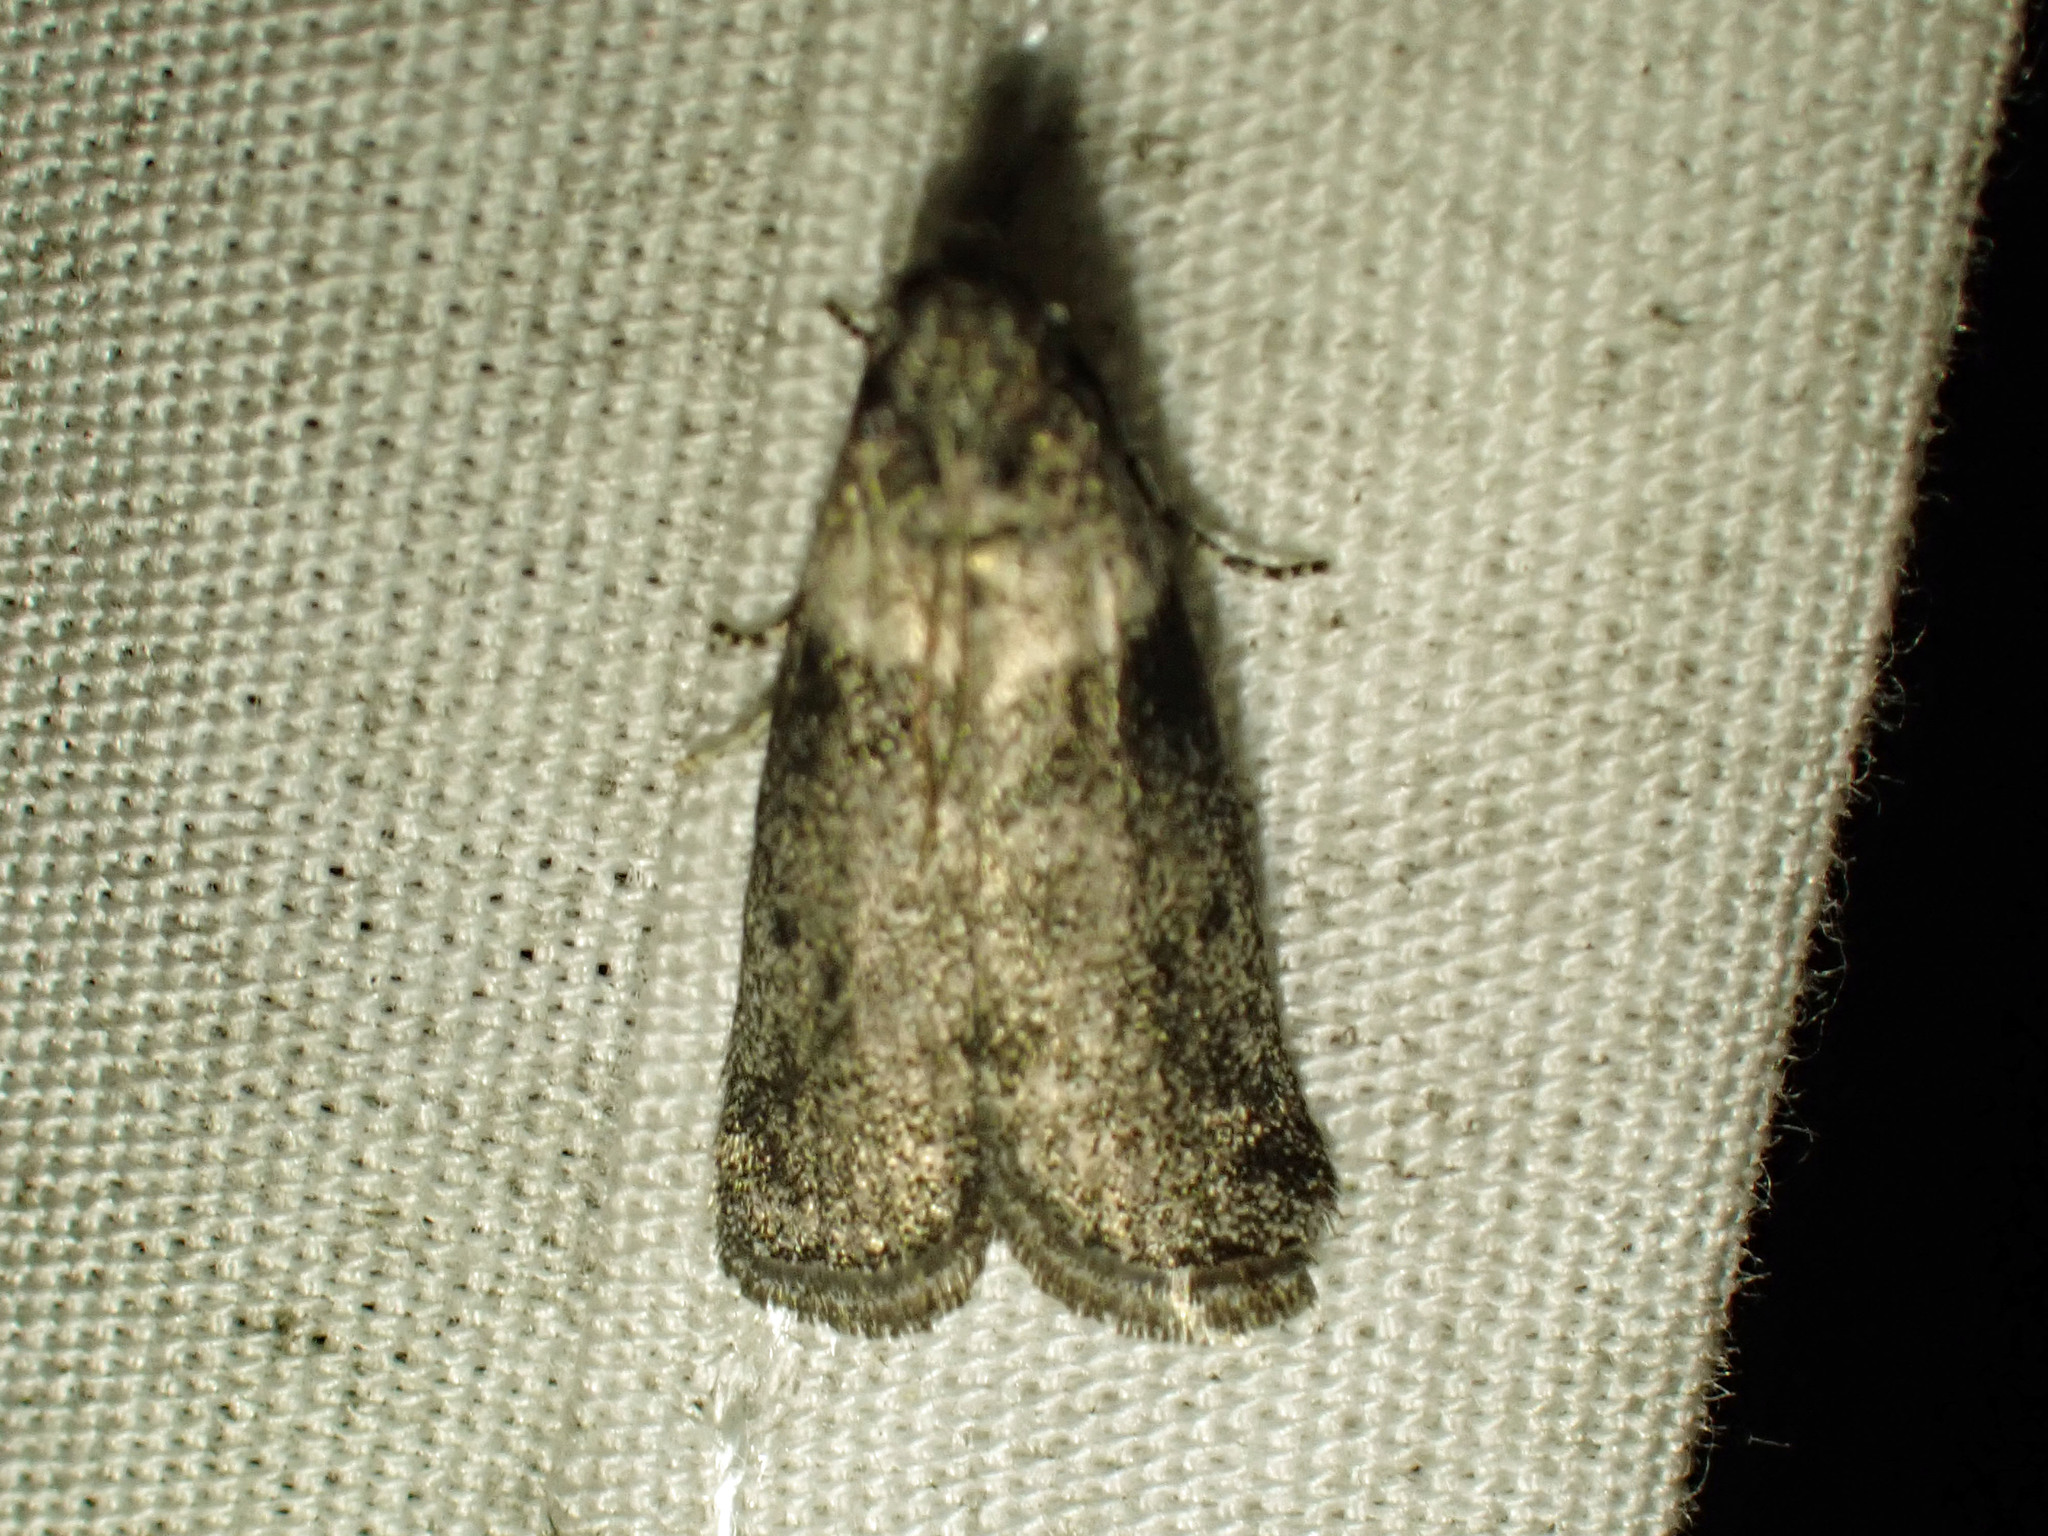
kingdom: Animalia
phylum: Arthropoda
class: Insecta
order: Lepidoptera
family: Pyralidae
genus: Meroptera
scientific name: Meroptera pravella
